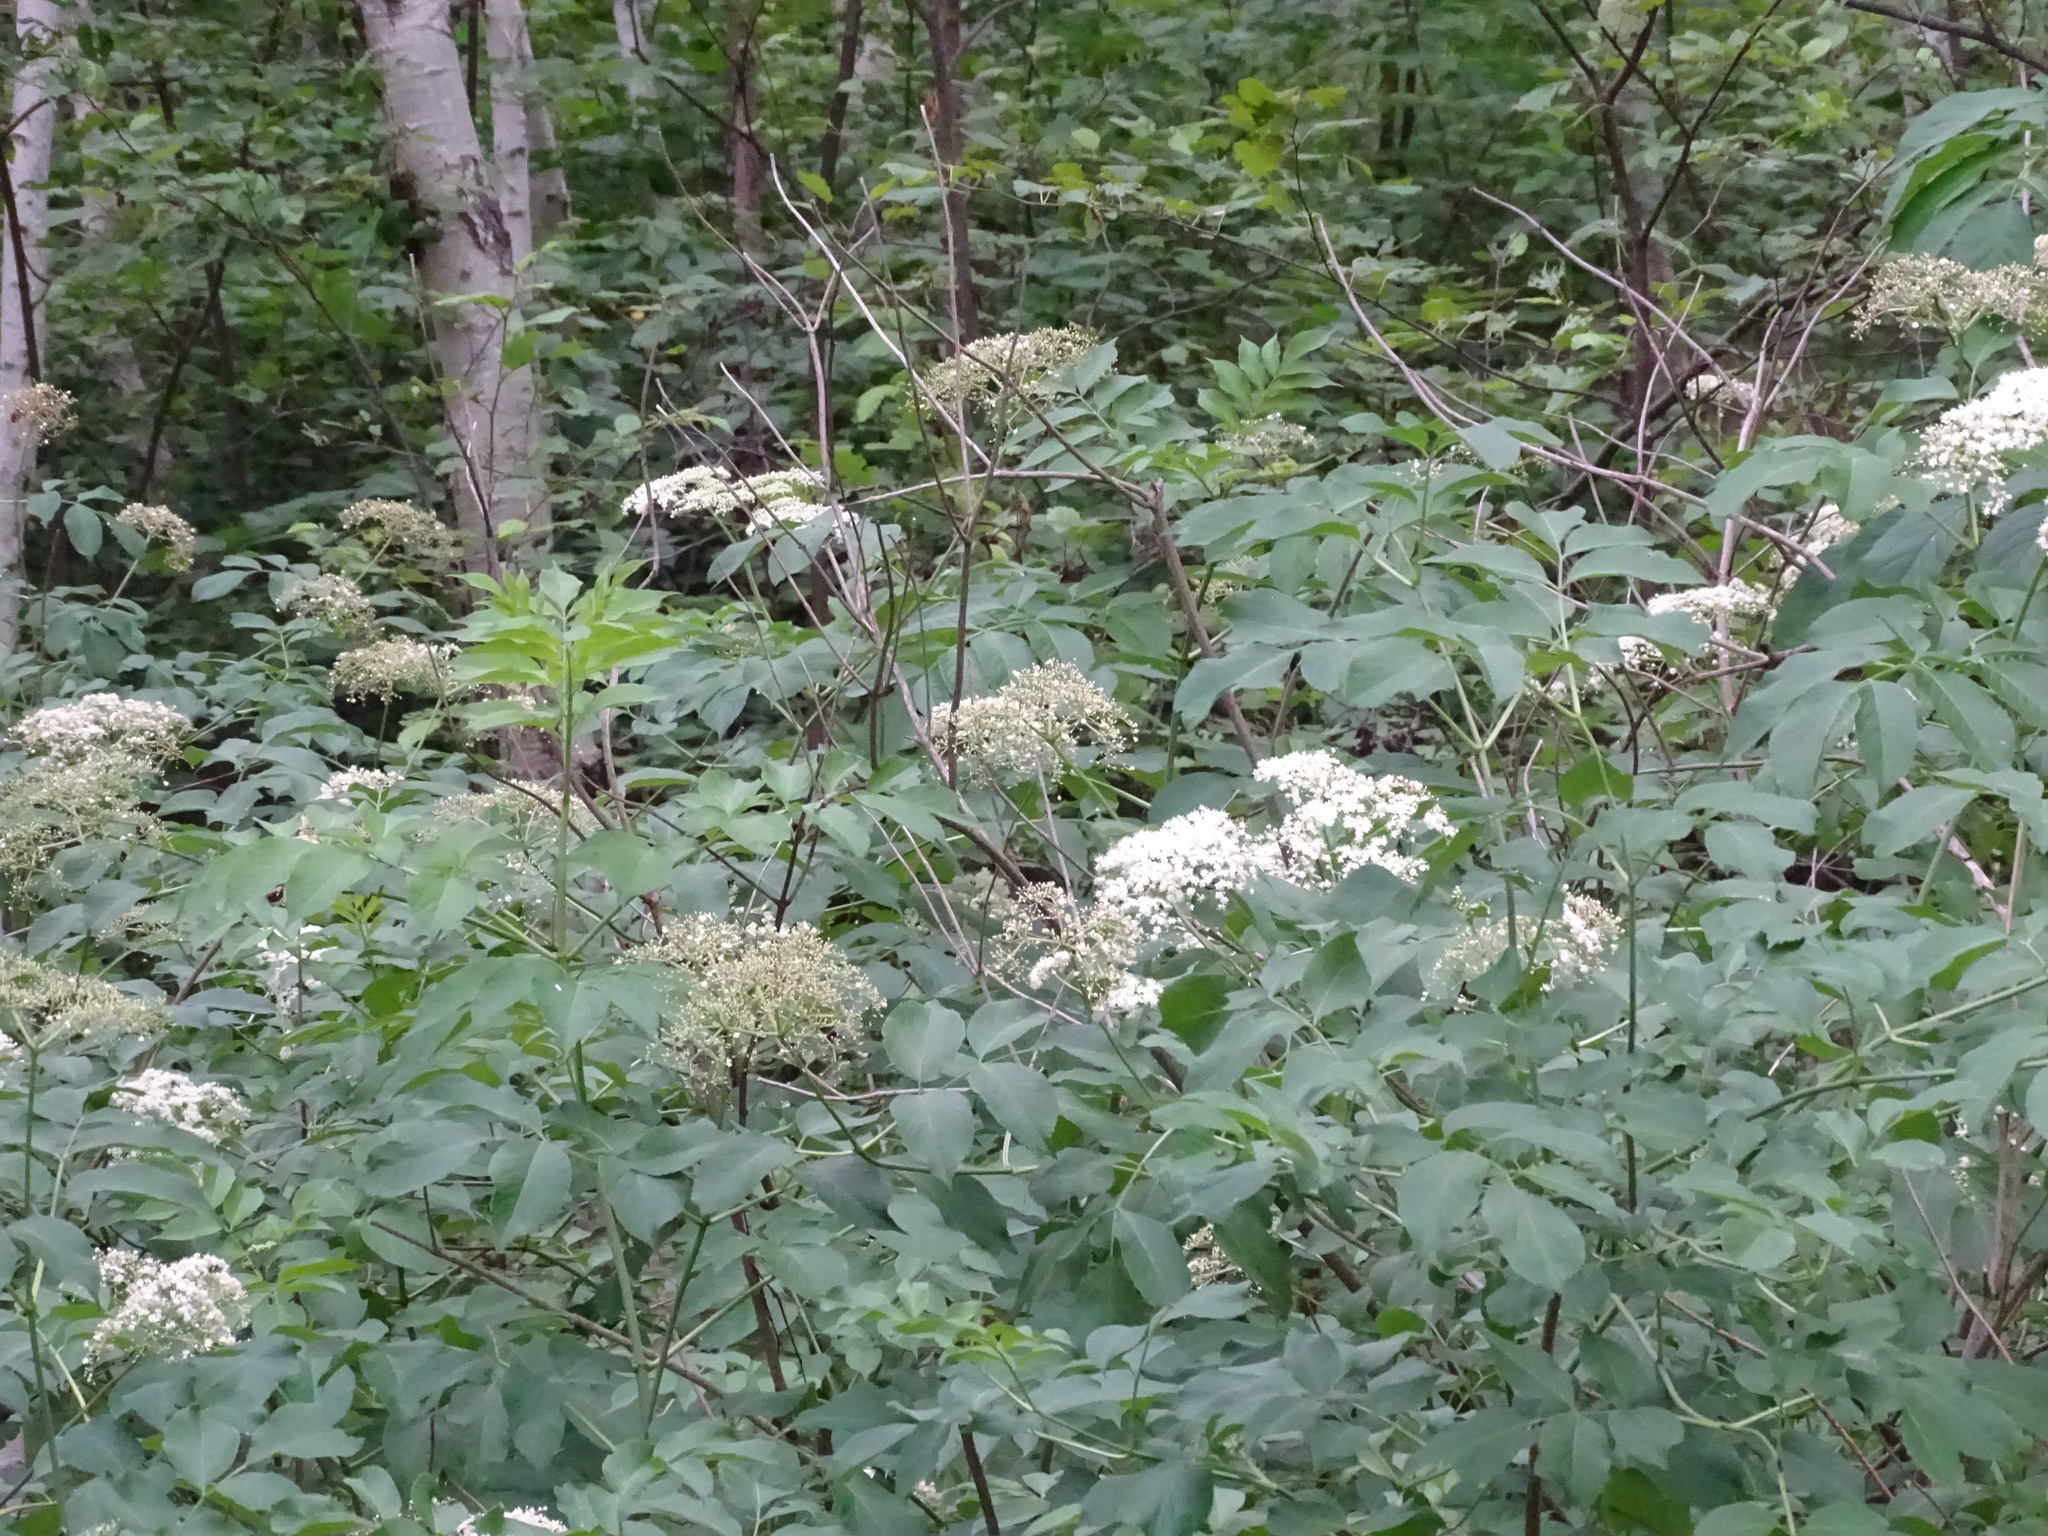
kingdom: Plantae
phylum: Tracheophyta
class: Magnoliopsida
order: Dipsacales
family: Viburnaceae
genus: Sambucus
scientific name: Sambucus canadensis
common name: American elder
